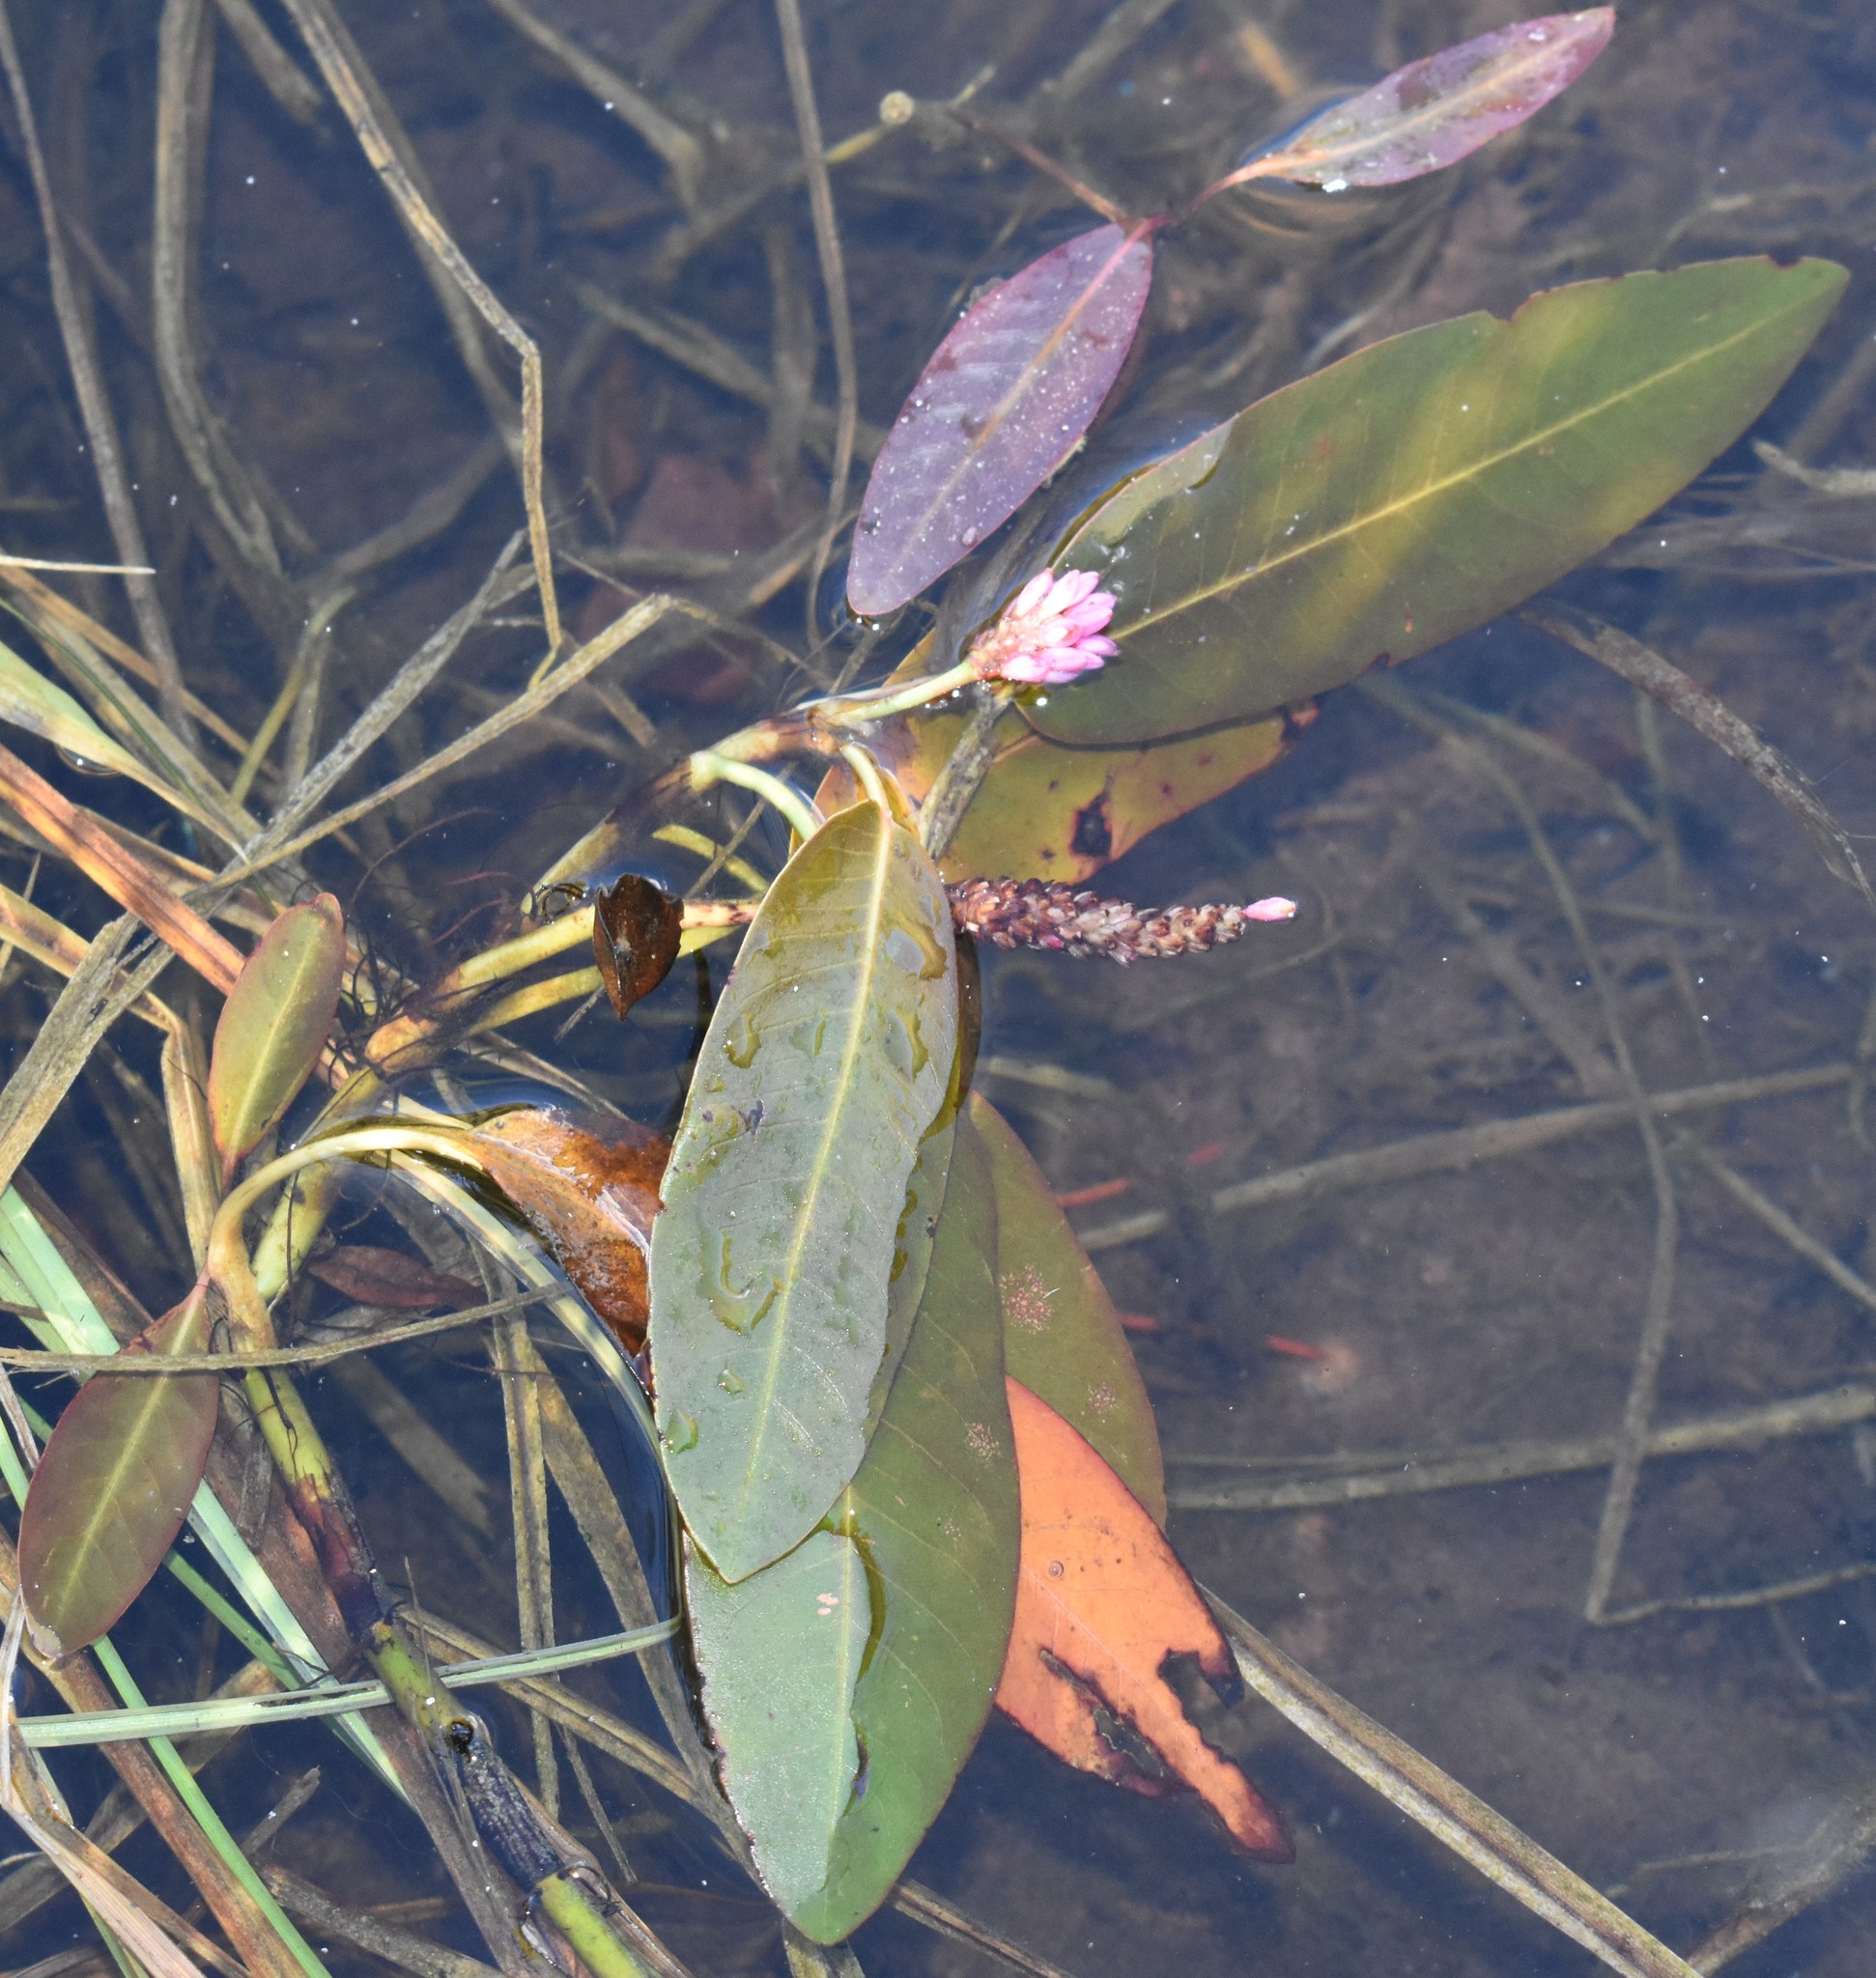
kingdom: Plantae
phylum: Tracheophyta
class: Magnoliopsida
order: Caryophyllales
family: Polygonaceae
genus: Persicaria
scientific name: Persicaria amphibia
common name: Amphibious bistort
